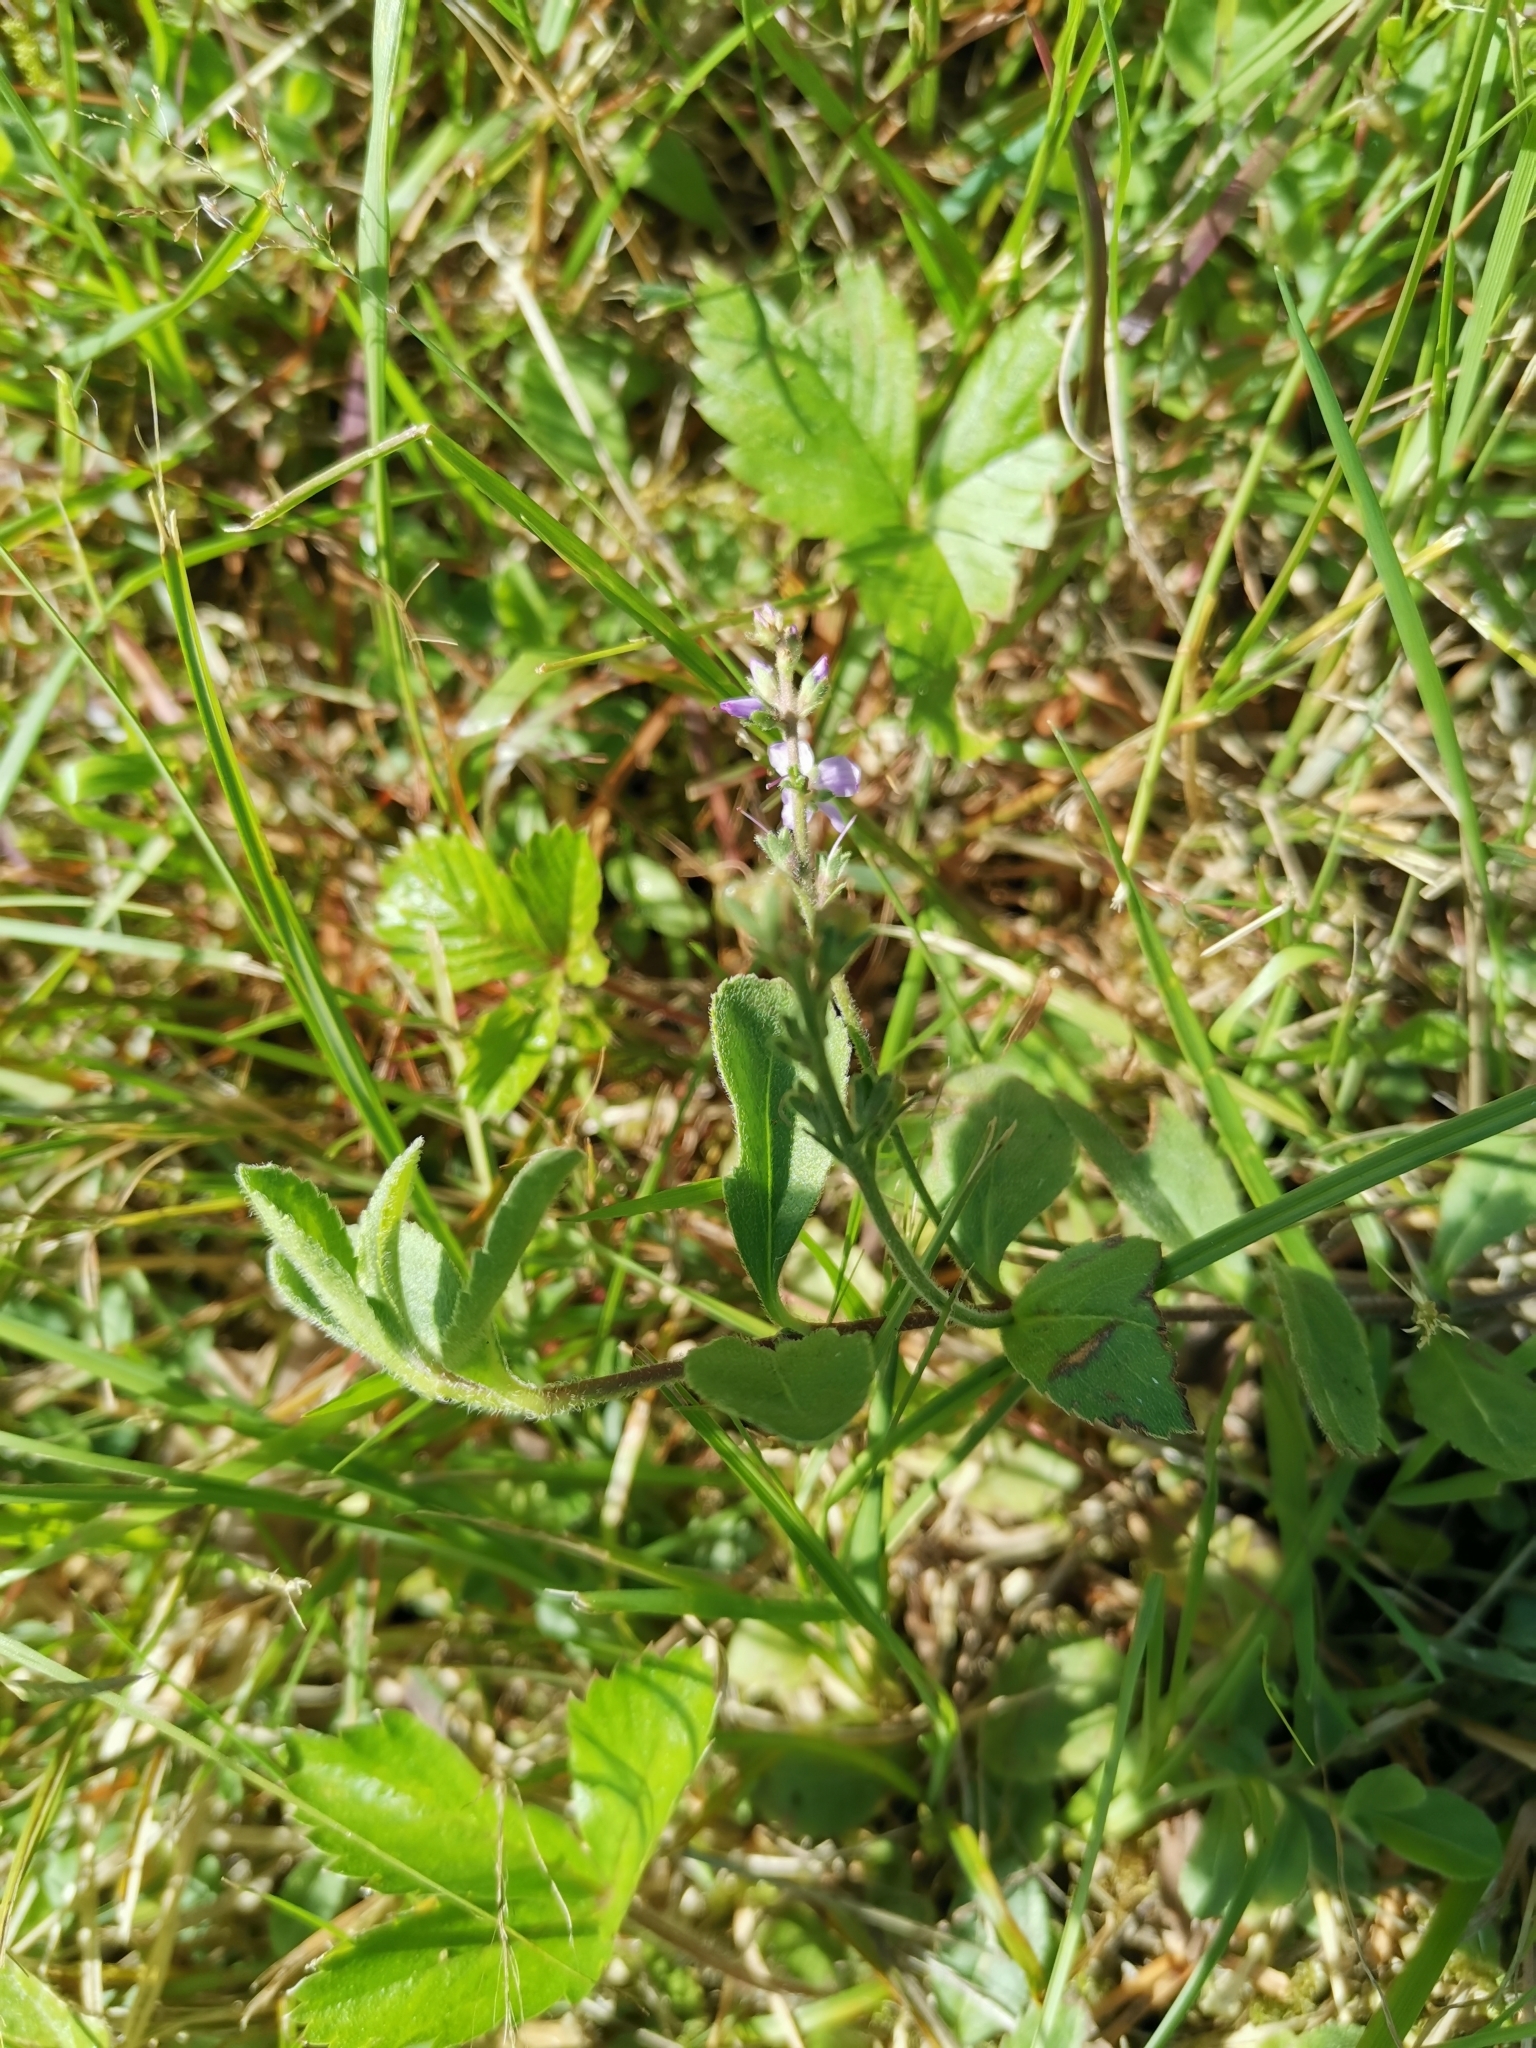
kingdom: Plantae
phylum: Tracheophyta
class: Magnoliopsida
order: Lamiales
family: Plantaginaceae
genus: Veronica
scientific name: Veronica officinalis
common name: Common speedwell
